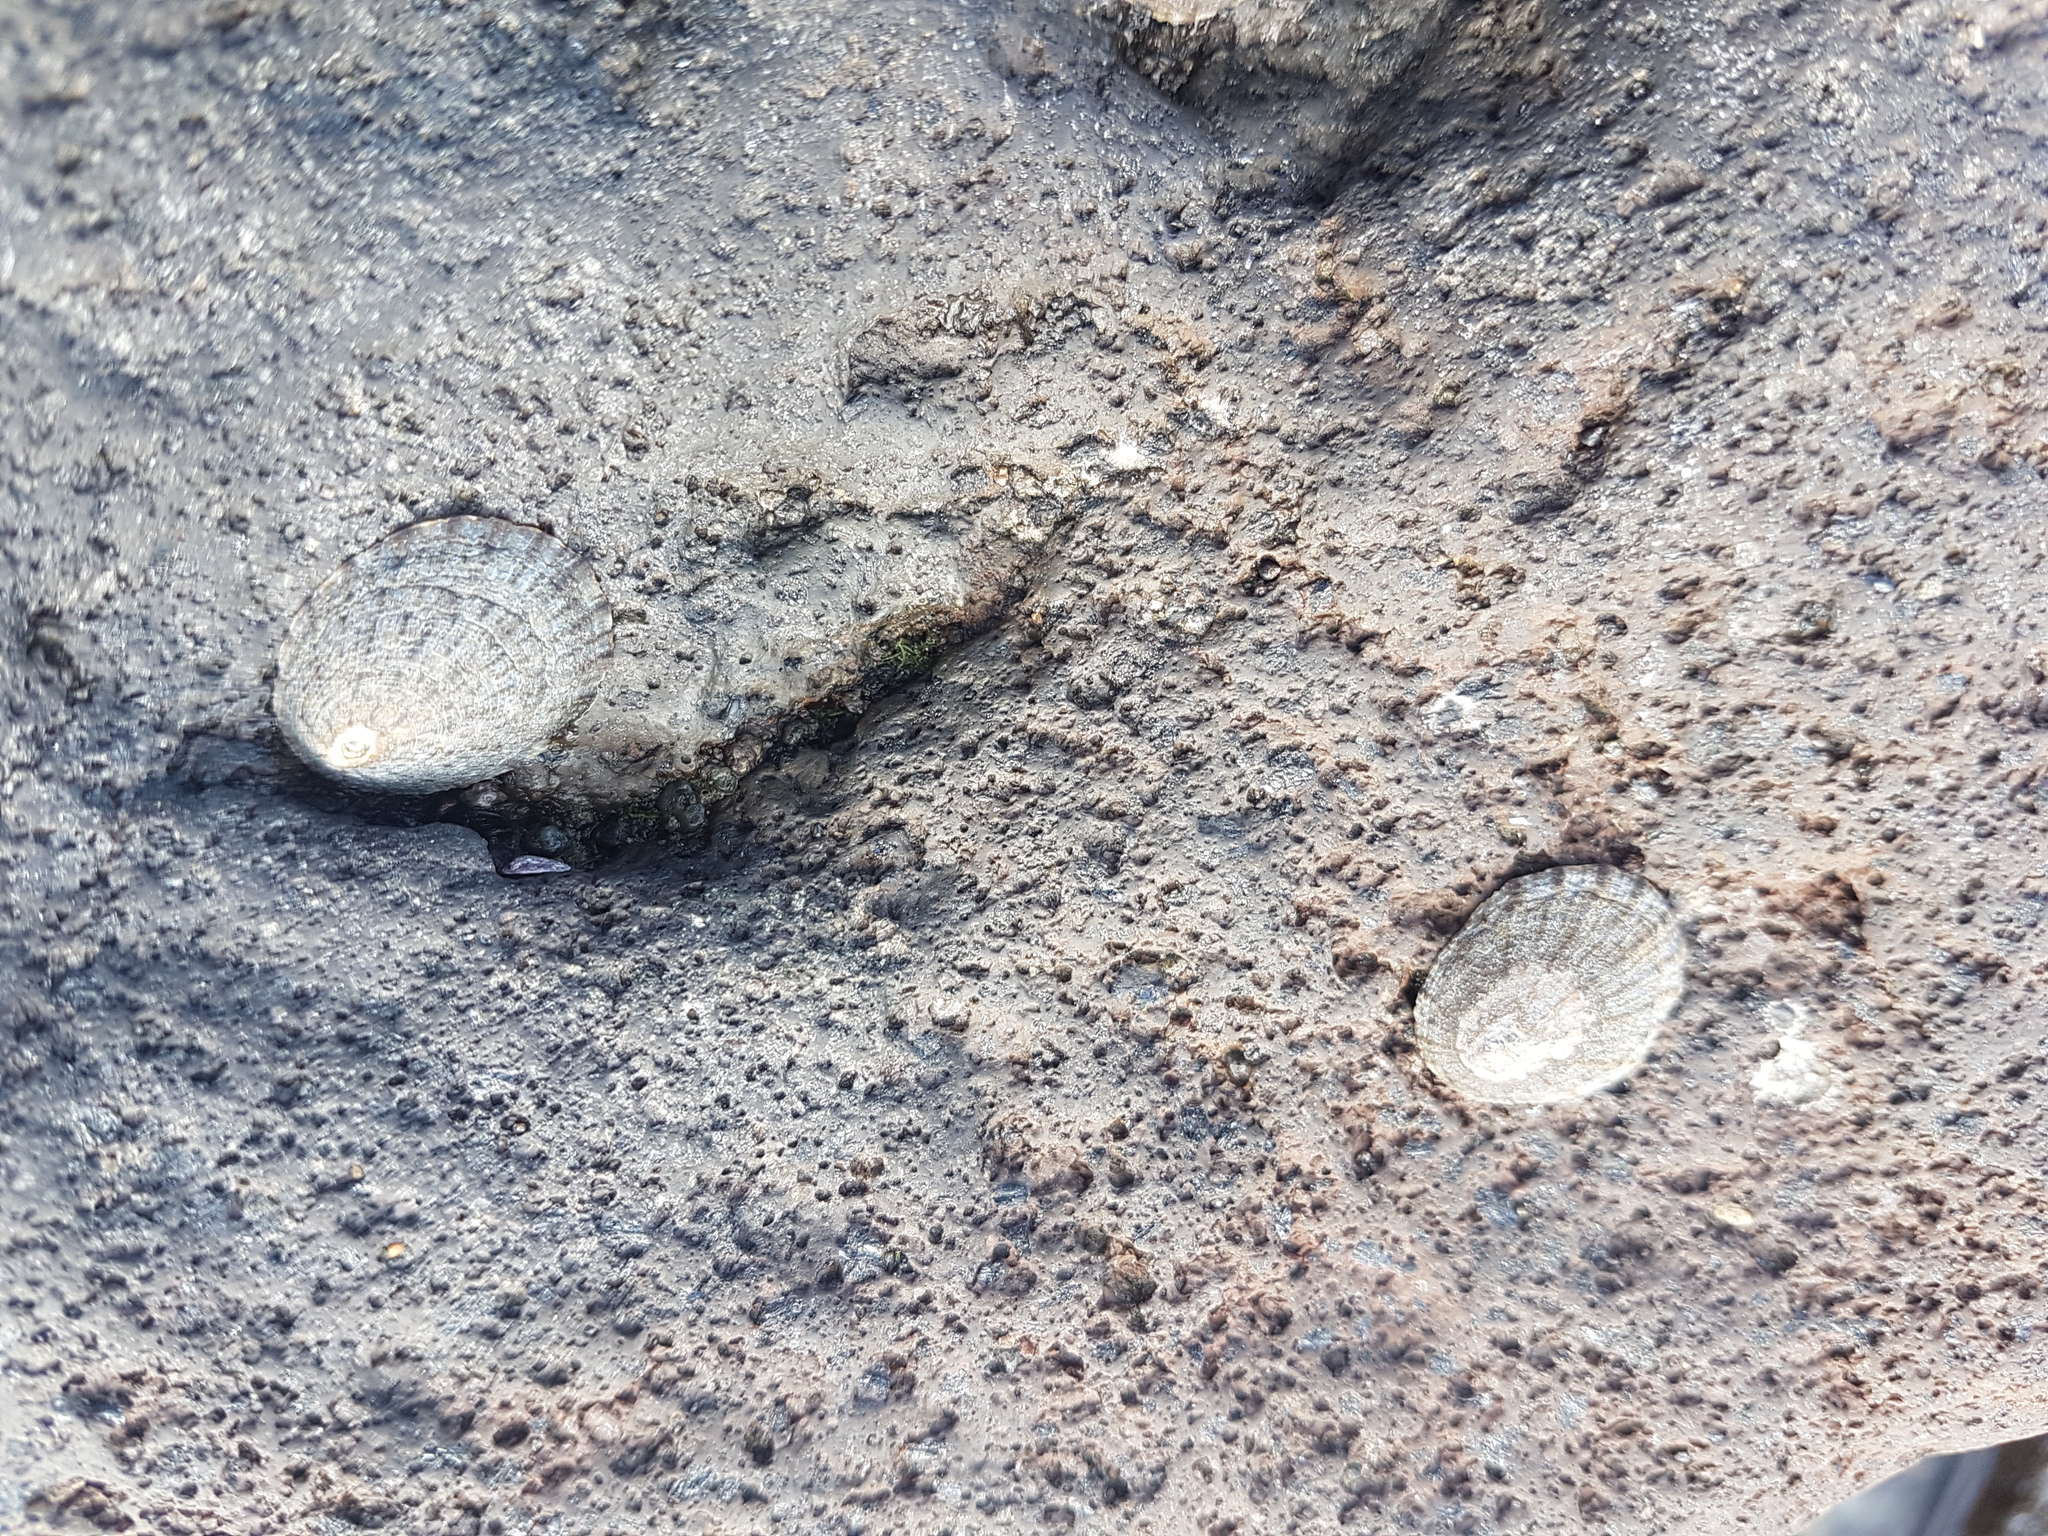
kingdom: Animalia
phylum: Mollusca
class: Gastropoda
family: Nacellidae
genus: Cellana
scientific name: Cellana radians
